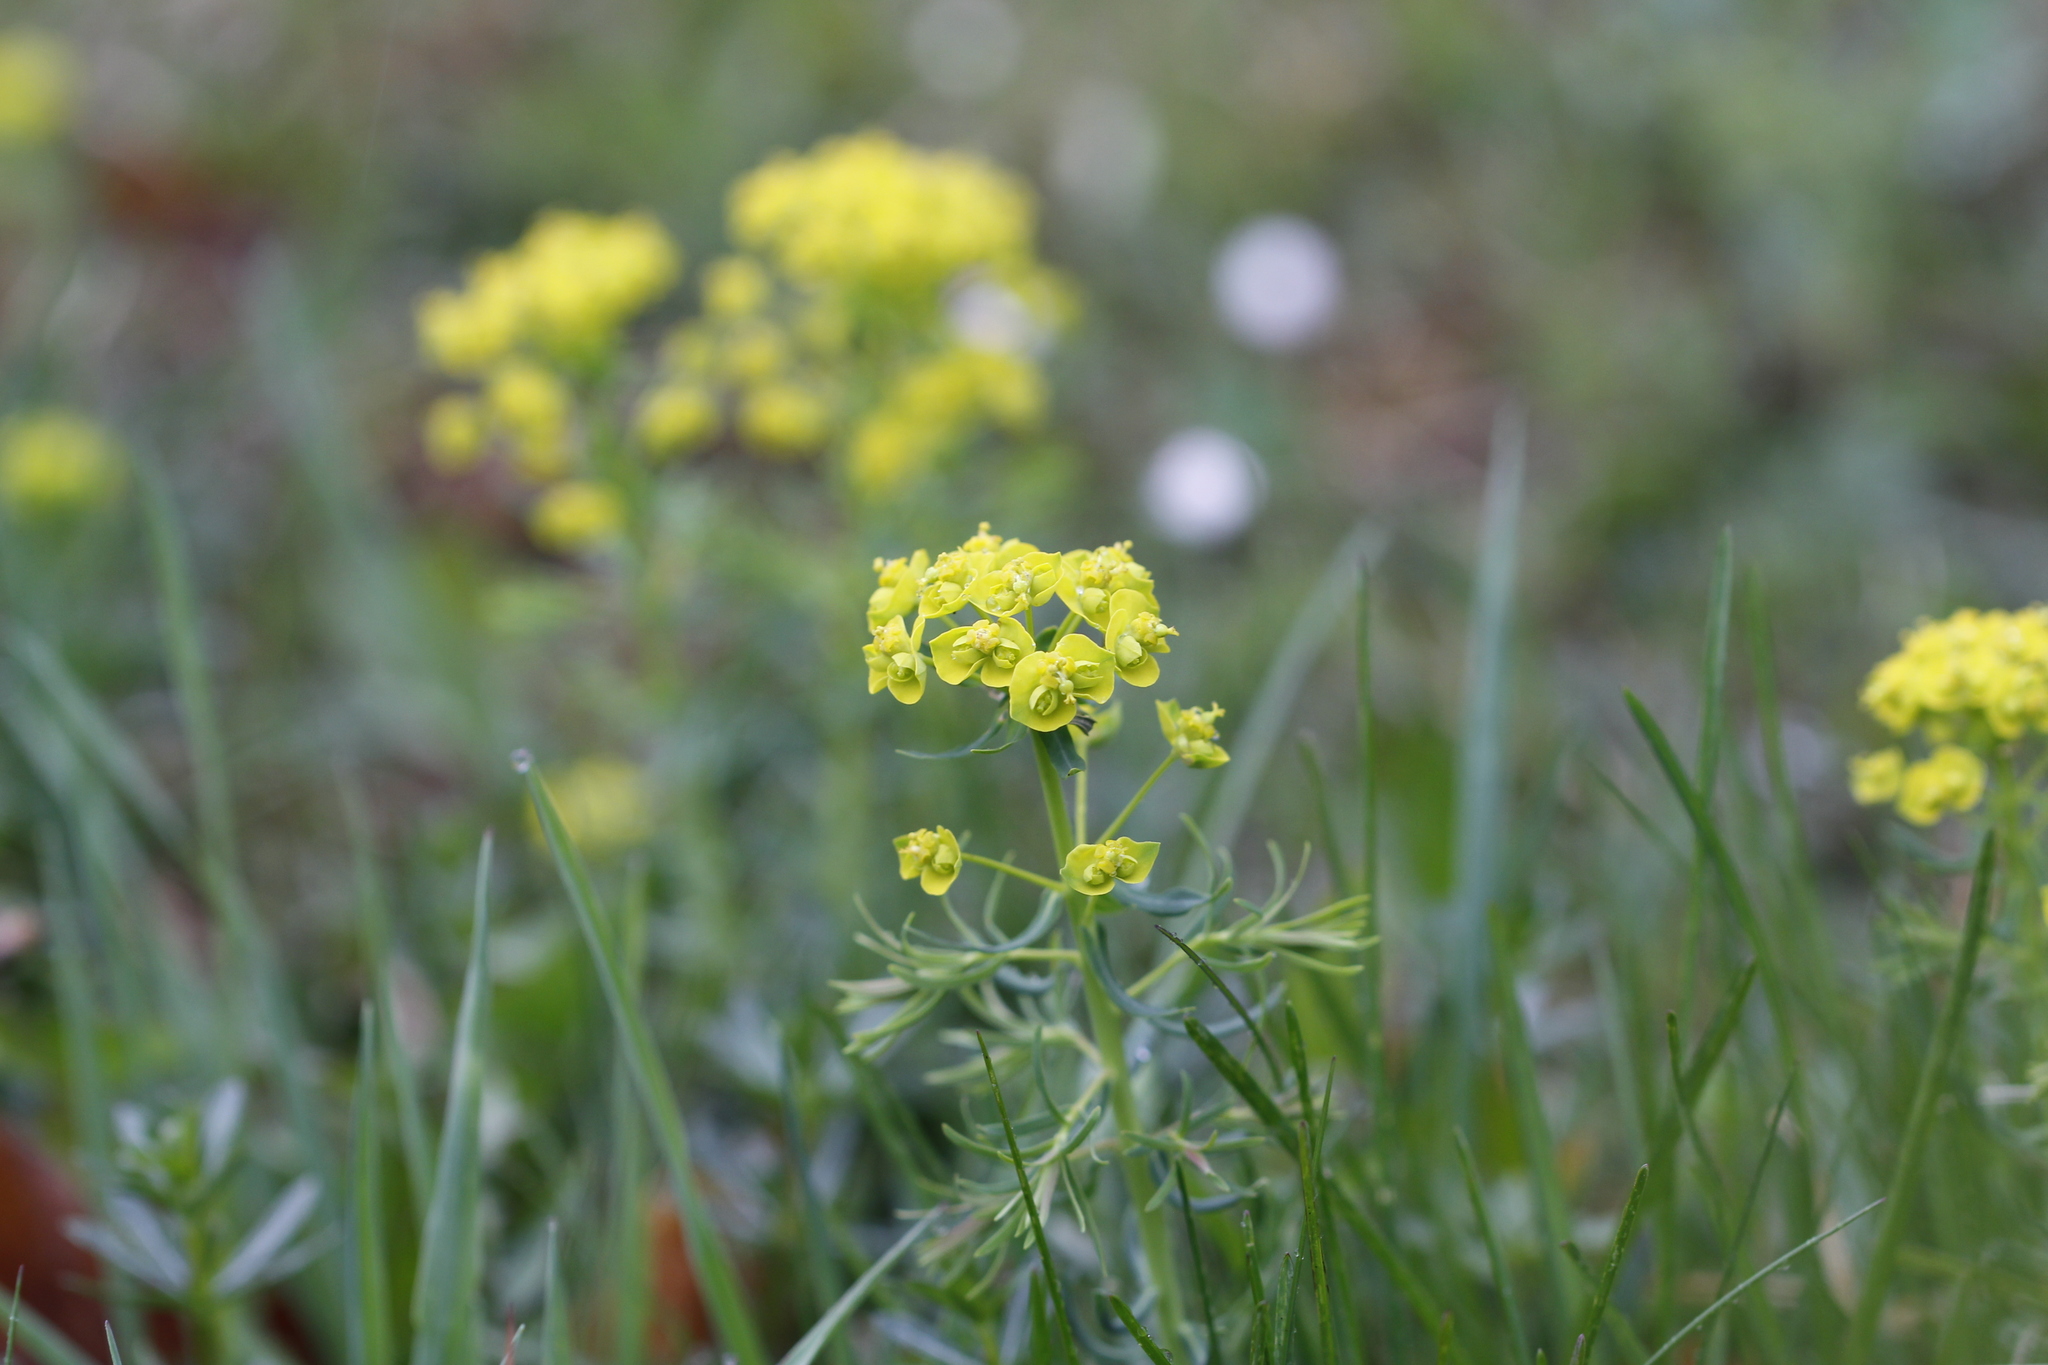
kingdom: Plantae
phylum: Tracheophyta
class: Magnoliopsida
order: Malpighiales
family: Euphorbiaceae
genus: Euphorbia
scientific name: Euphorbia cyparissias
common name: Cypress spurge
